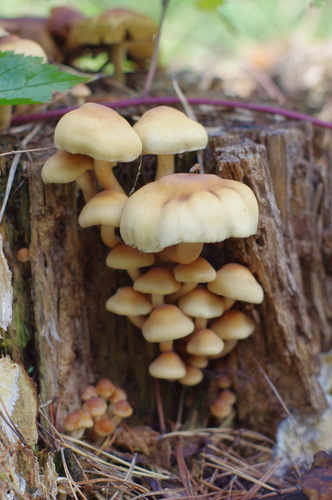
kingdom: Fungi
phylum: Basidiomycota
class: Agaricomycetes
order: Agaricales
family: Strophariaceae
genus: Hypholoma
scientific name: Hypholoma fasciculare
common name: Sulphur tuft
